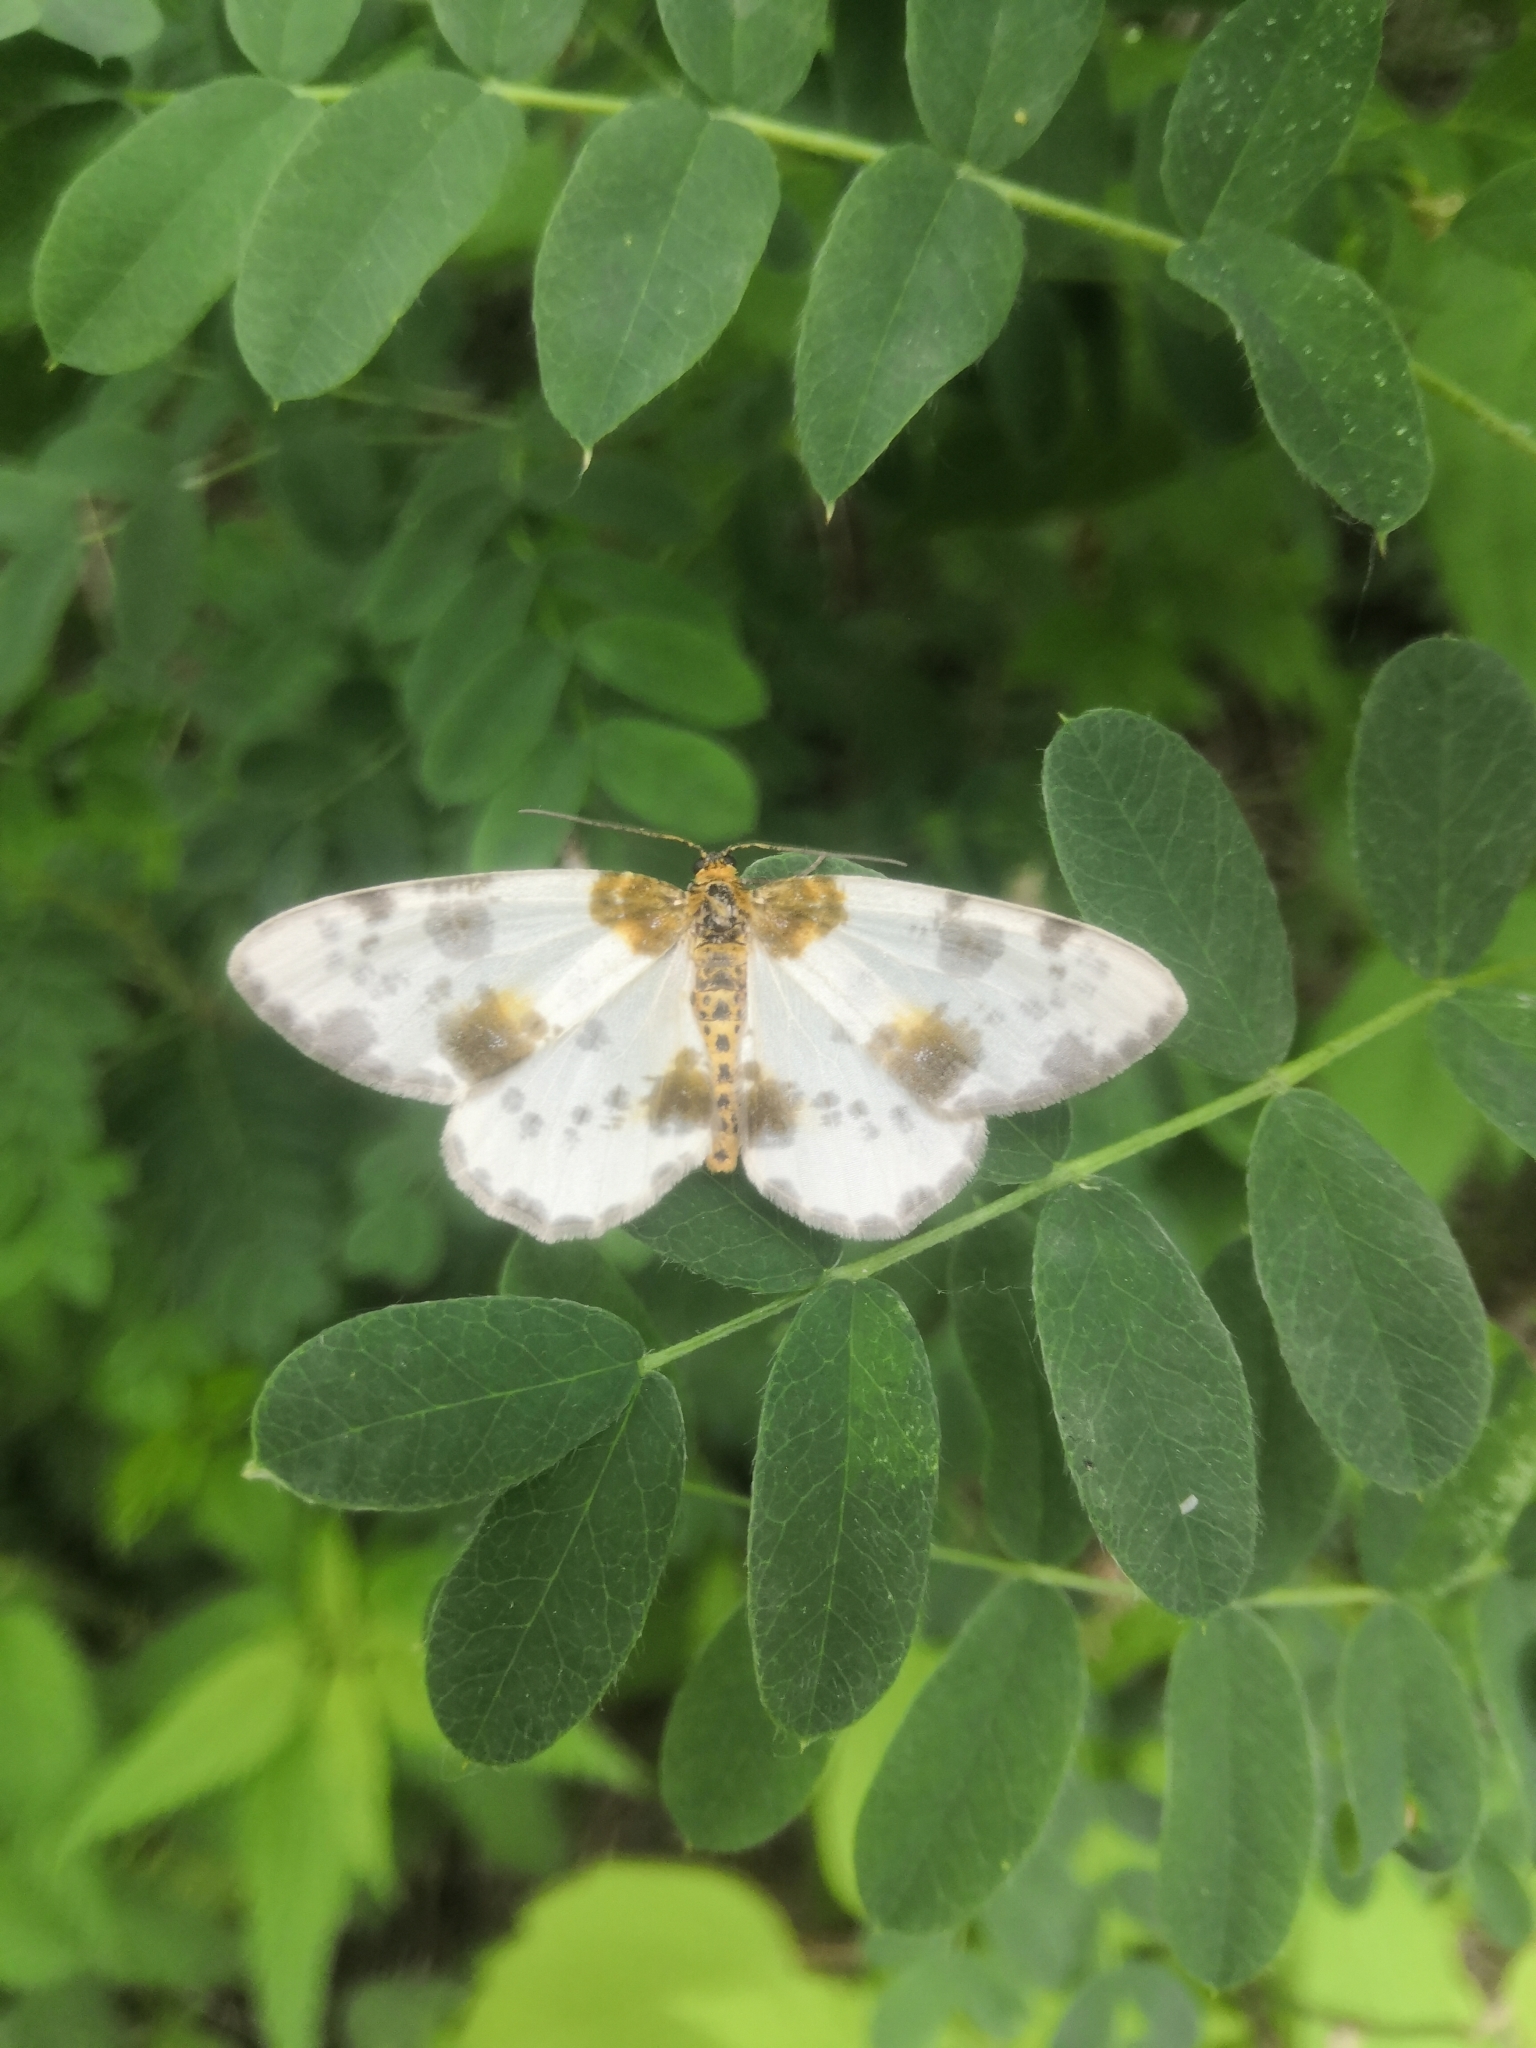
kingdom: Animalia
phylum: Arthropoda
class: Insecta
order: Lepidoptera
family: Geometridae
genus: Abraxas
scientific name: Abraxas sylvata
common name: Clouded magpie
